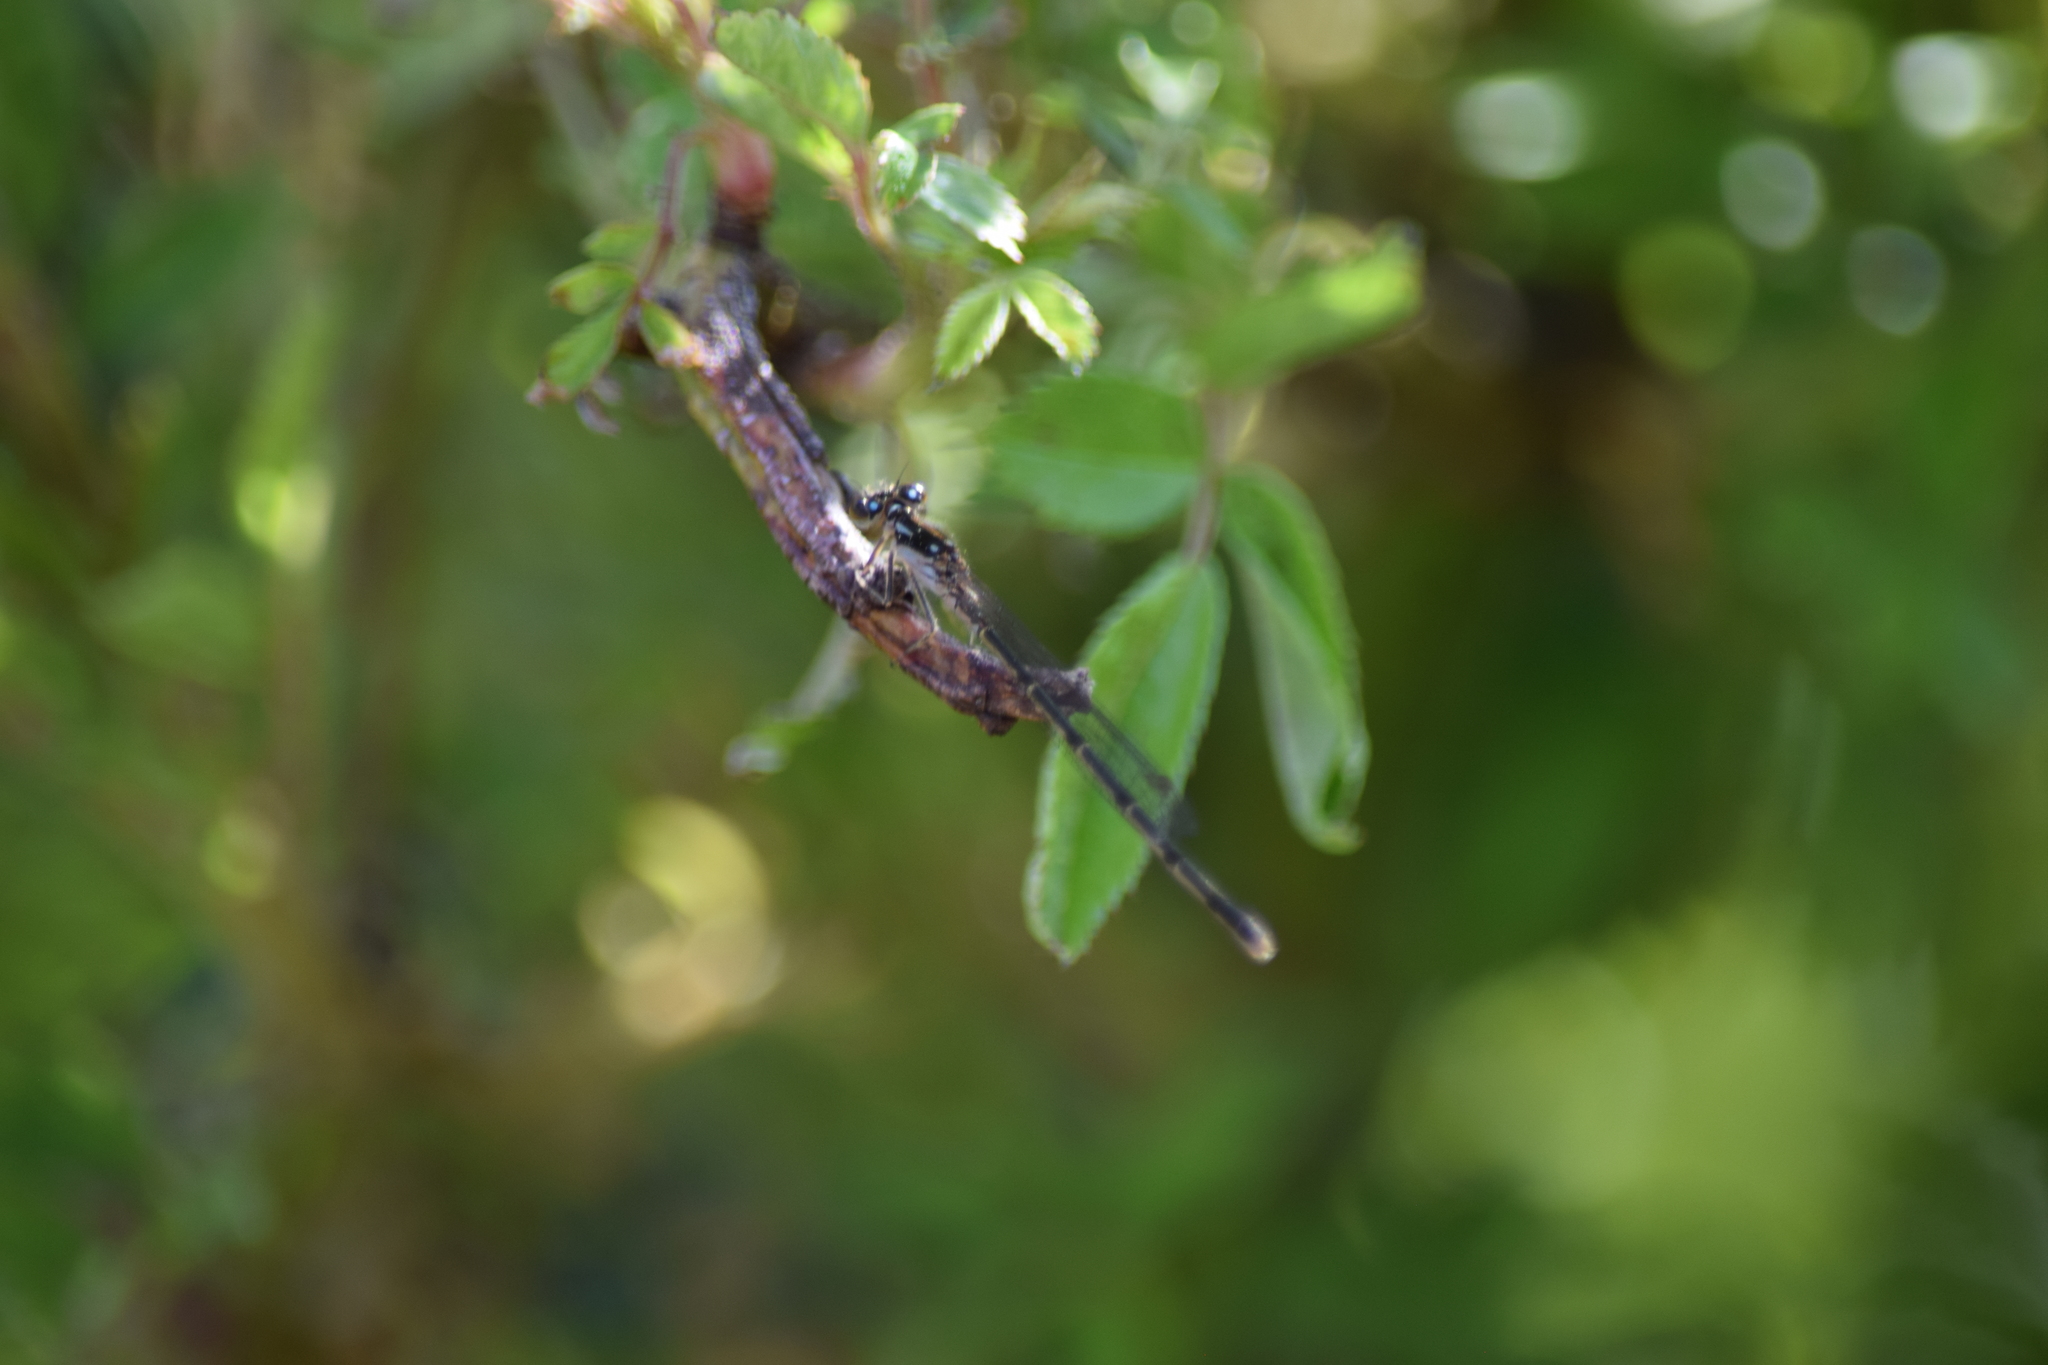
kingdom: Animalia
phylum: Arthropoda
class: Insecta
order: Odonata
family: Coenagrionidae
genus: Ischnura
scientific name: Ischnura posita
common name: Fragile forktail
